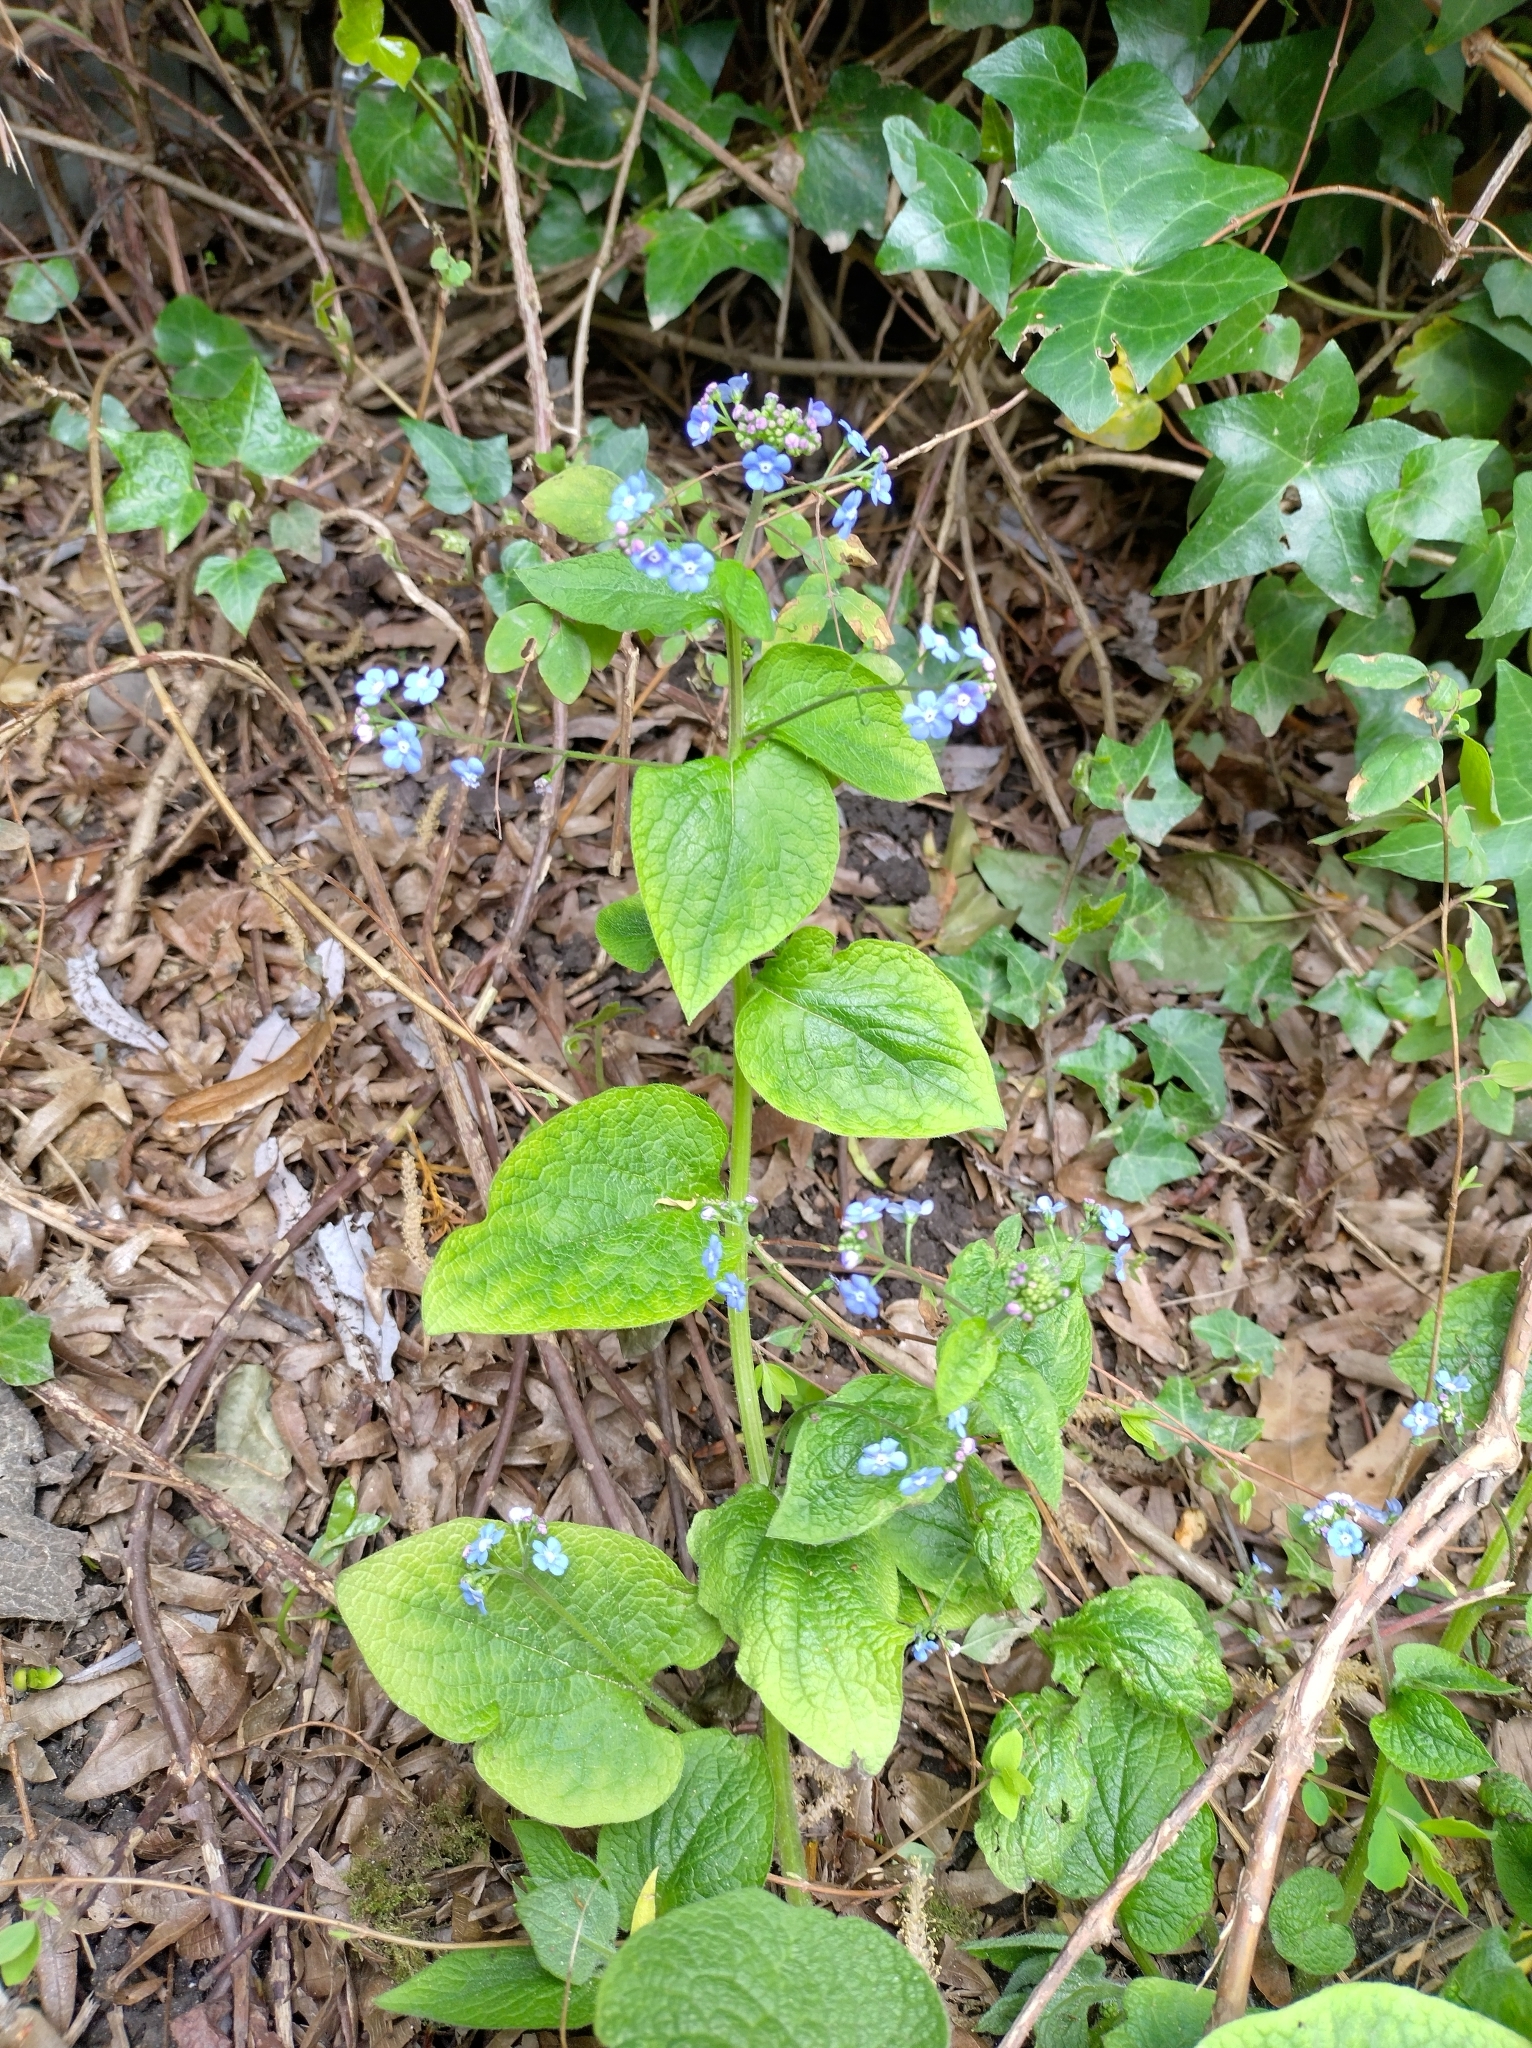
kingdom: Plantae
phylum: Tracheophyta
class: Magnoliopsida
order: Boraginales
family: Boraginaceae
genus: Brunnera
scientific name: Brunnera macrophylla
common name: Great forget-me-not
